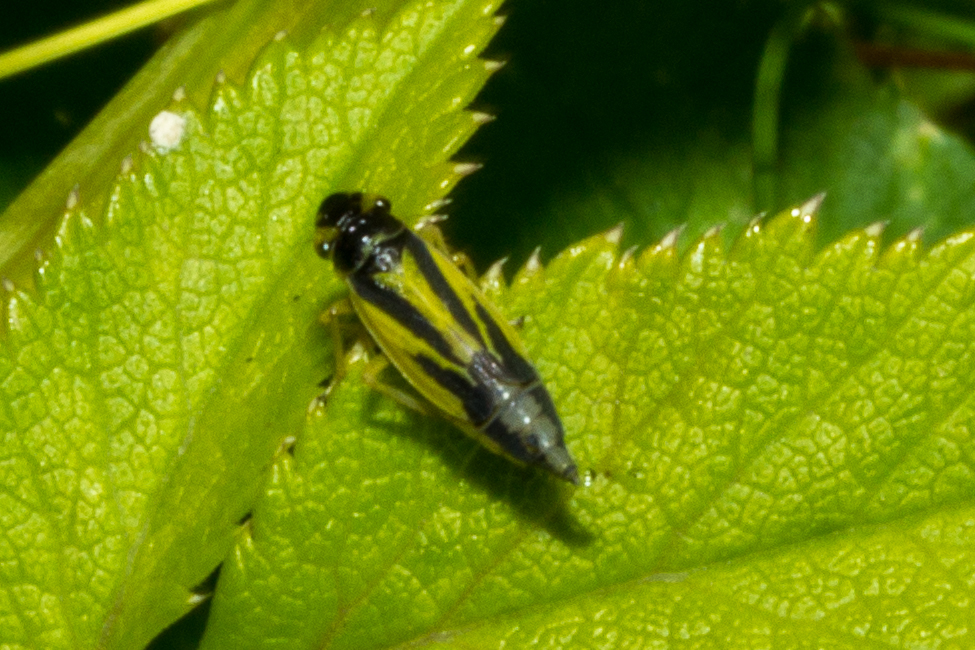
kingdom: Animalia
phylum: Arthropoda
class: Insecta
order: Hemiptera
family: Cicadellidae
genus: Evacanthus
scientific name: Evacanthus interruptus
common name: Leafhopper
